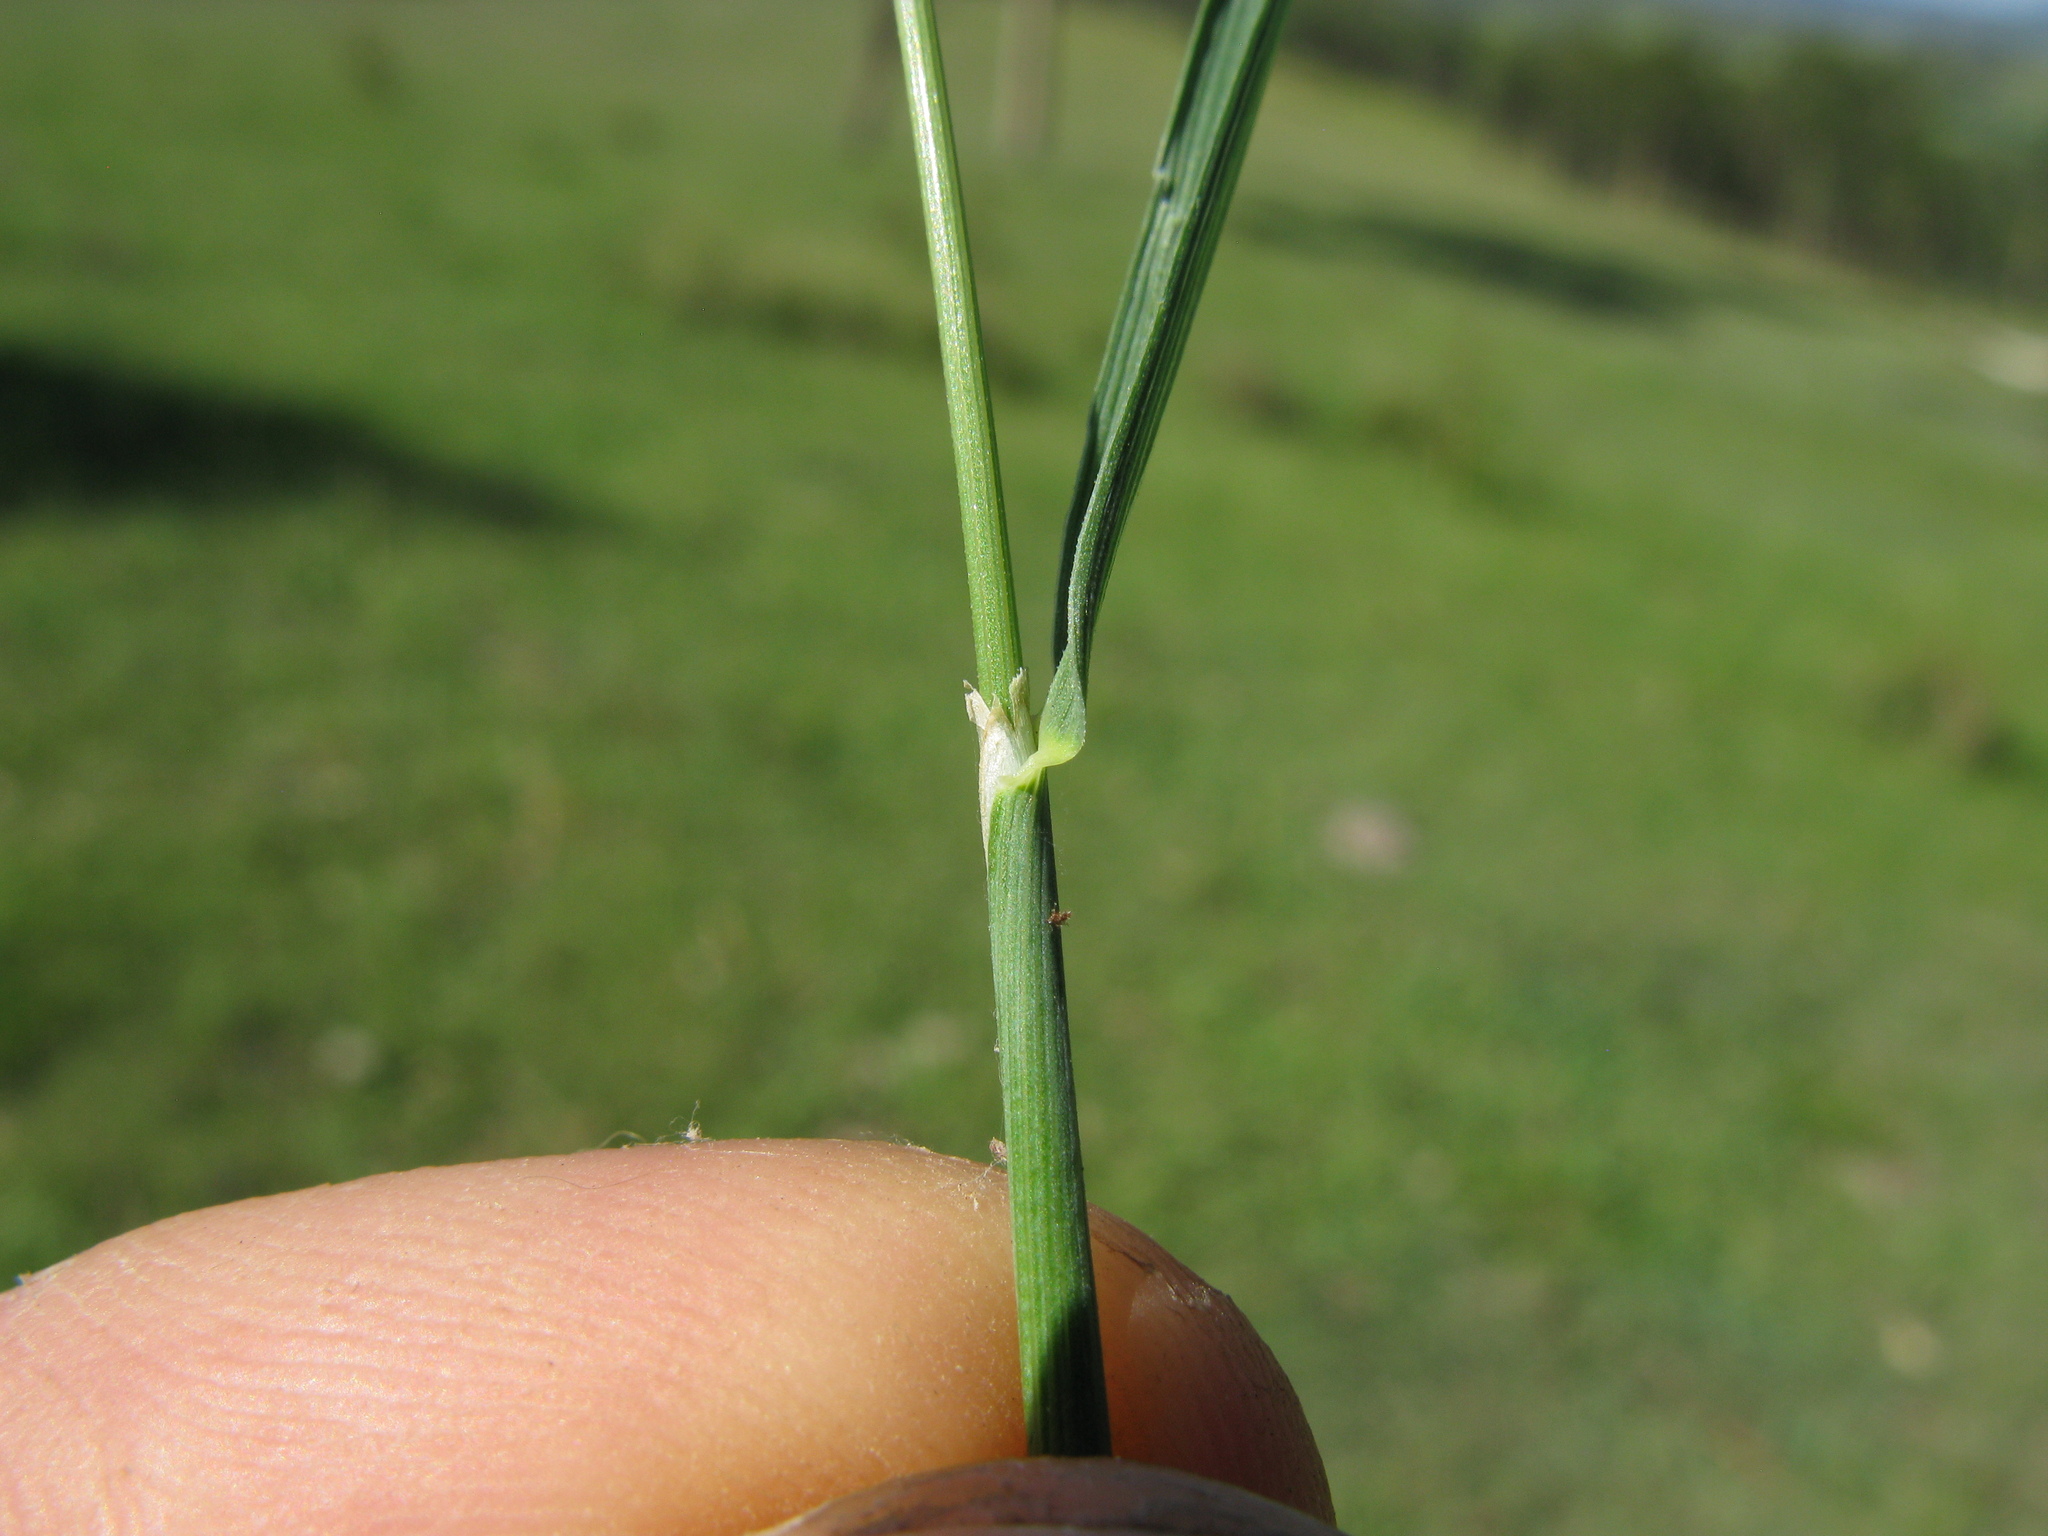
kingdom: Plantae
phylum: Tracheophyta
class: Liliopsida
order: Poales
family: Poaceae
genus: Echinopogon
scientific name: Echinopogon caespitosus
